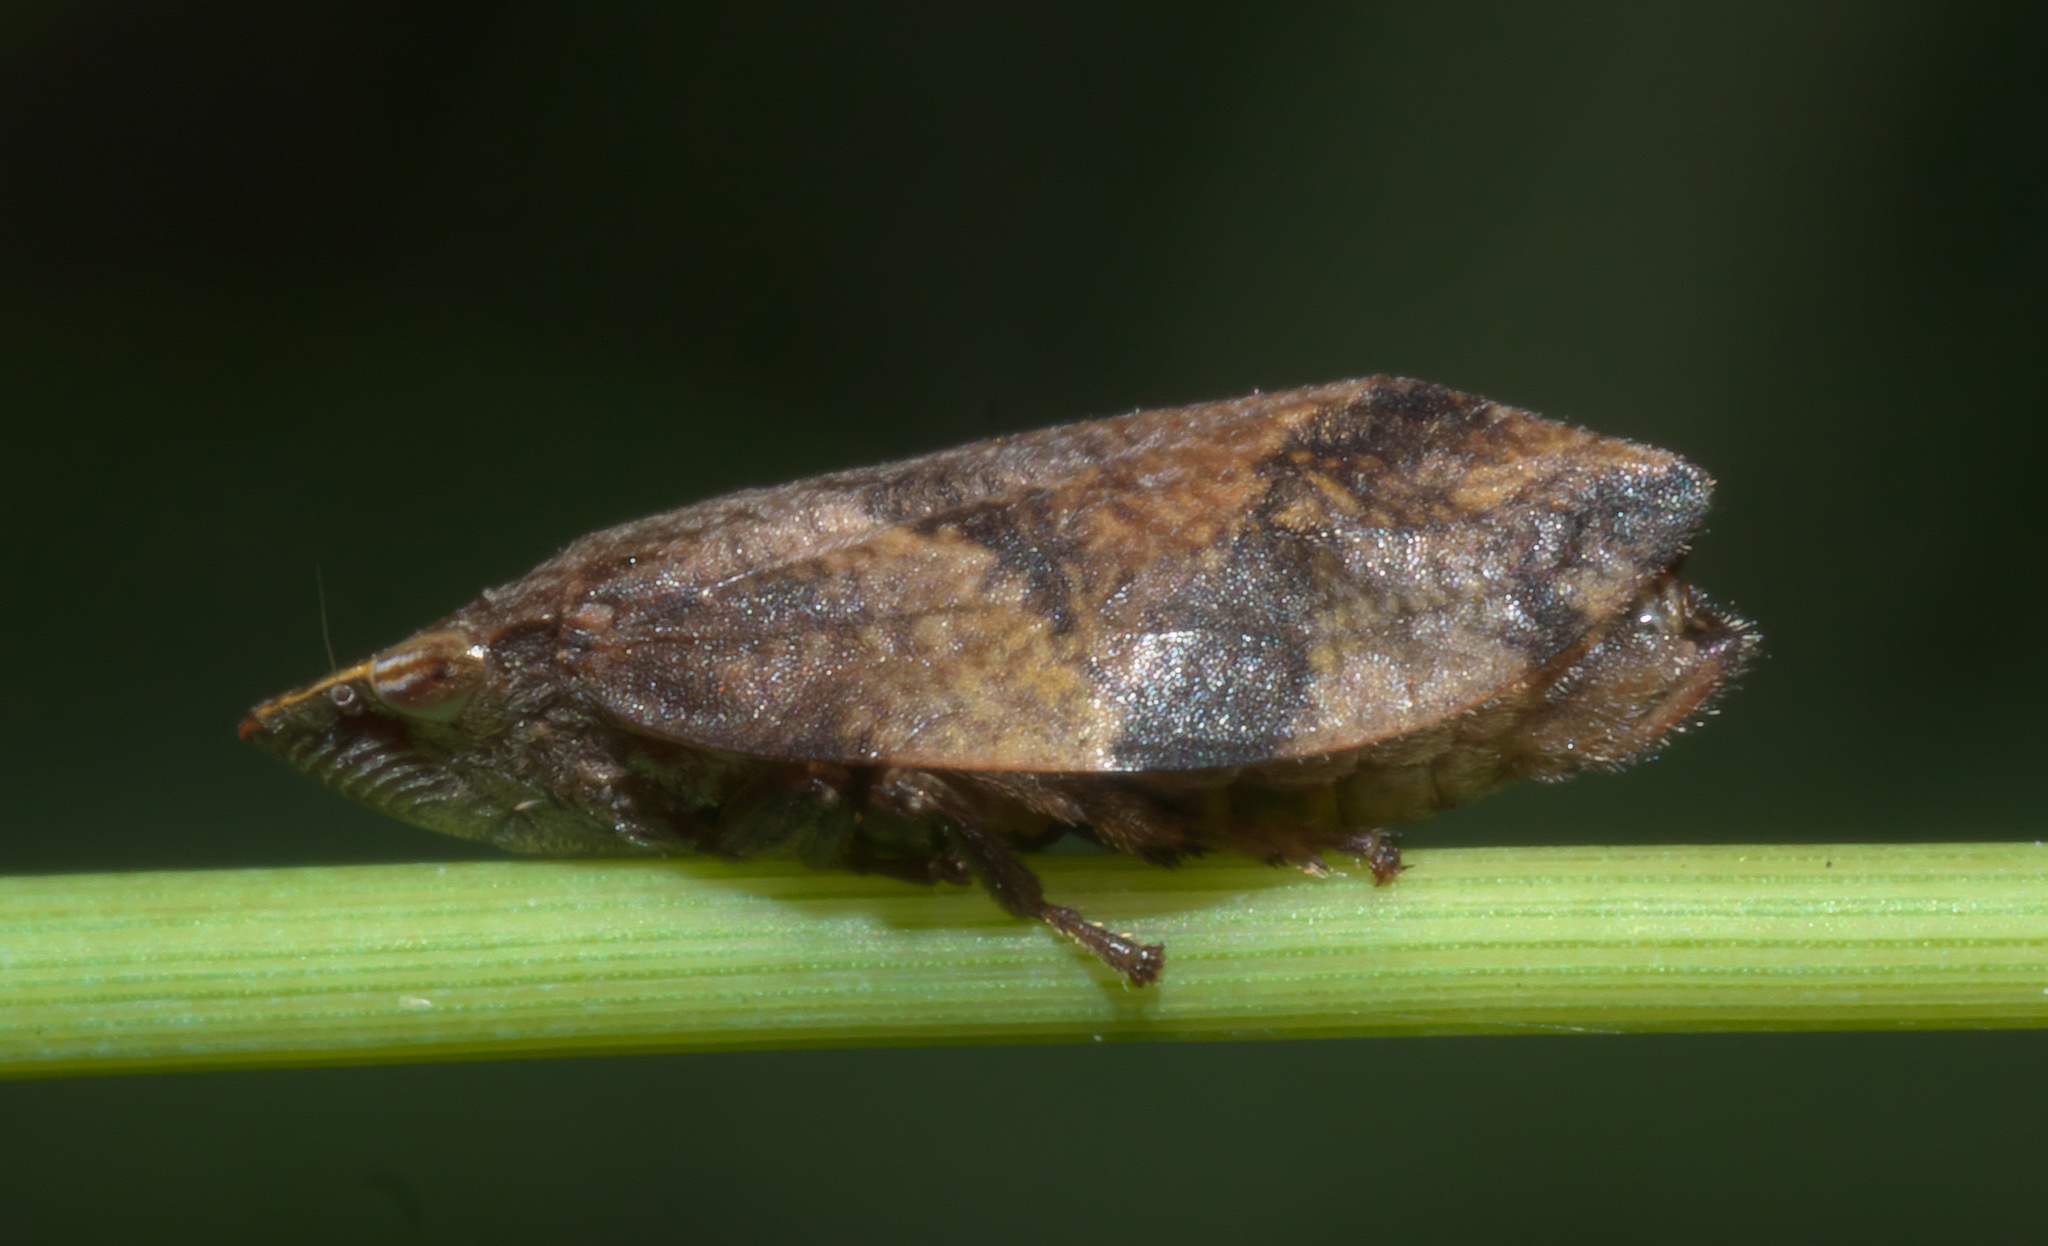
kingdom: Animalia
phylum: Arthropoda
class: Insecta
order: Hemiptera
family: Aphrophoridae
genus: Lepyronia
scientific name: Lepyronia quadrangularis
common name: Diamond-backed spittlebug
